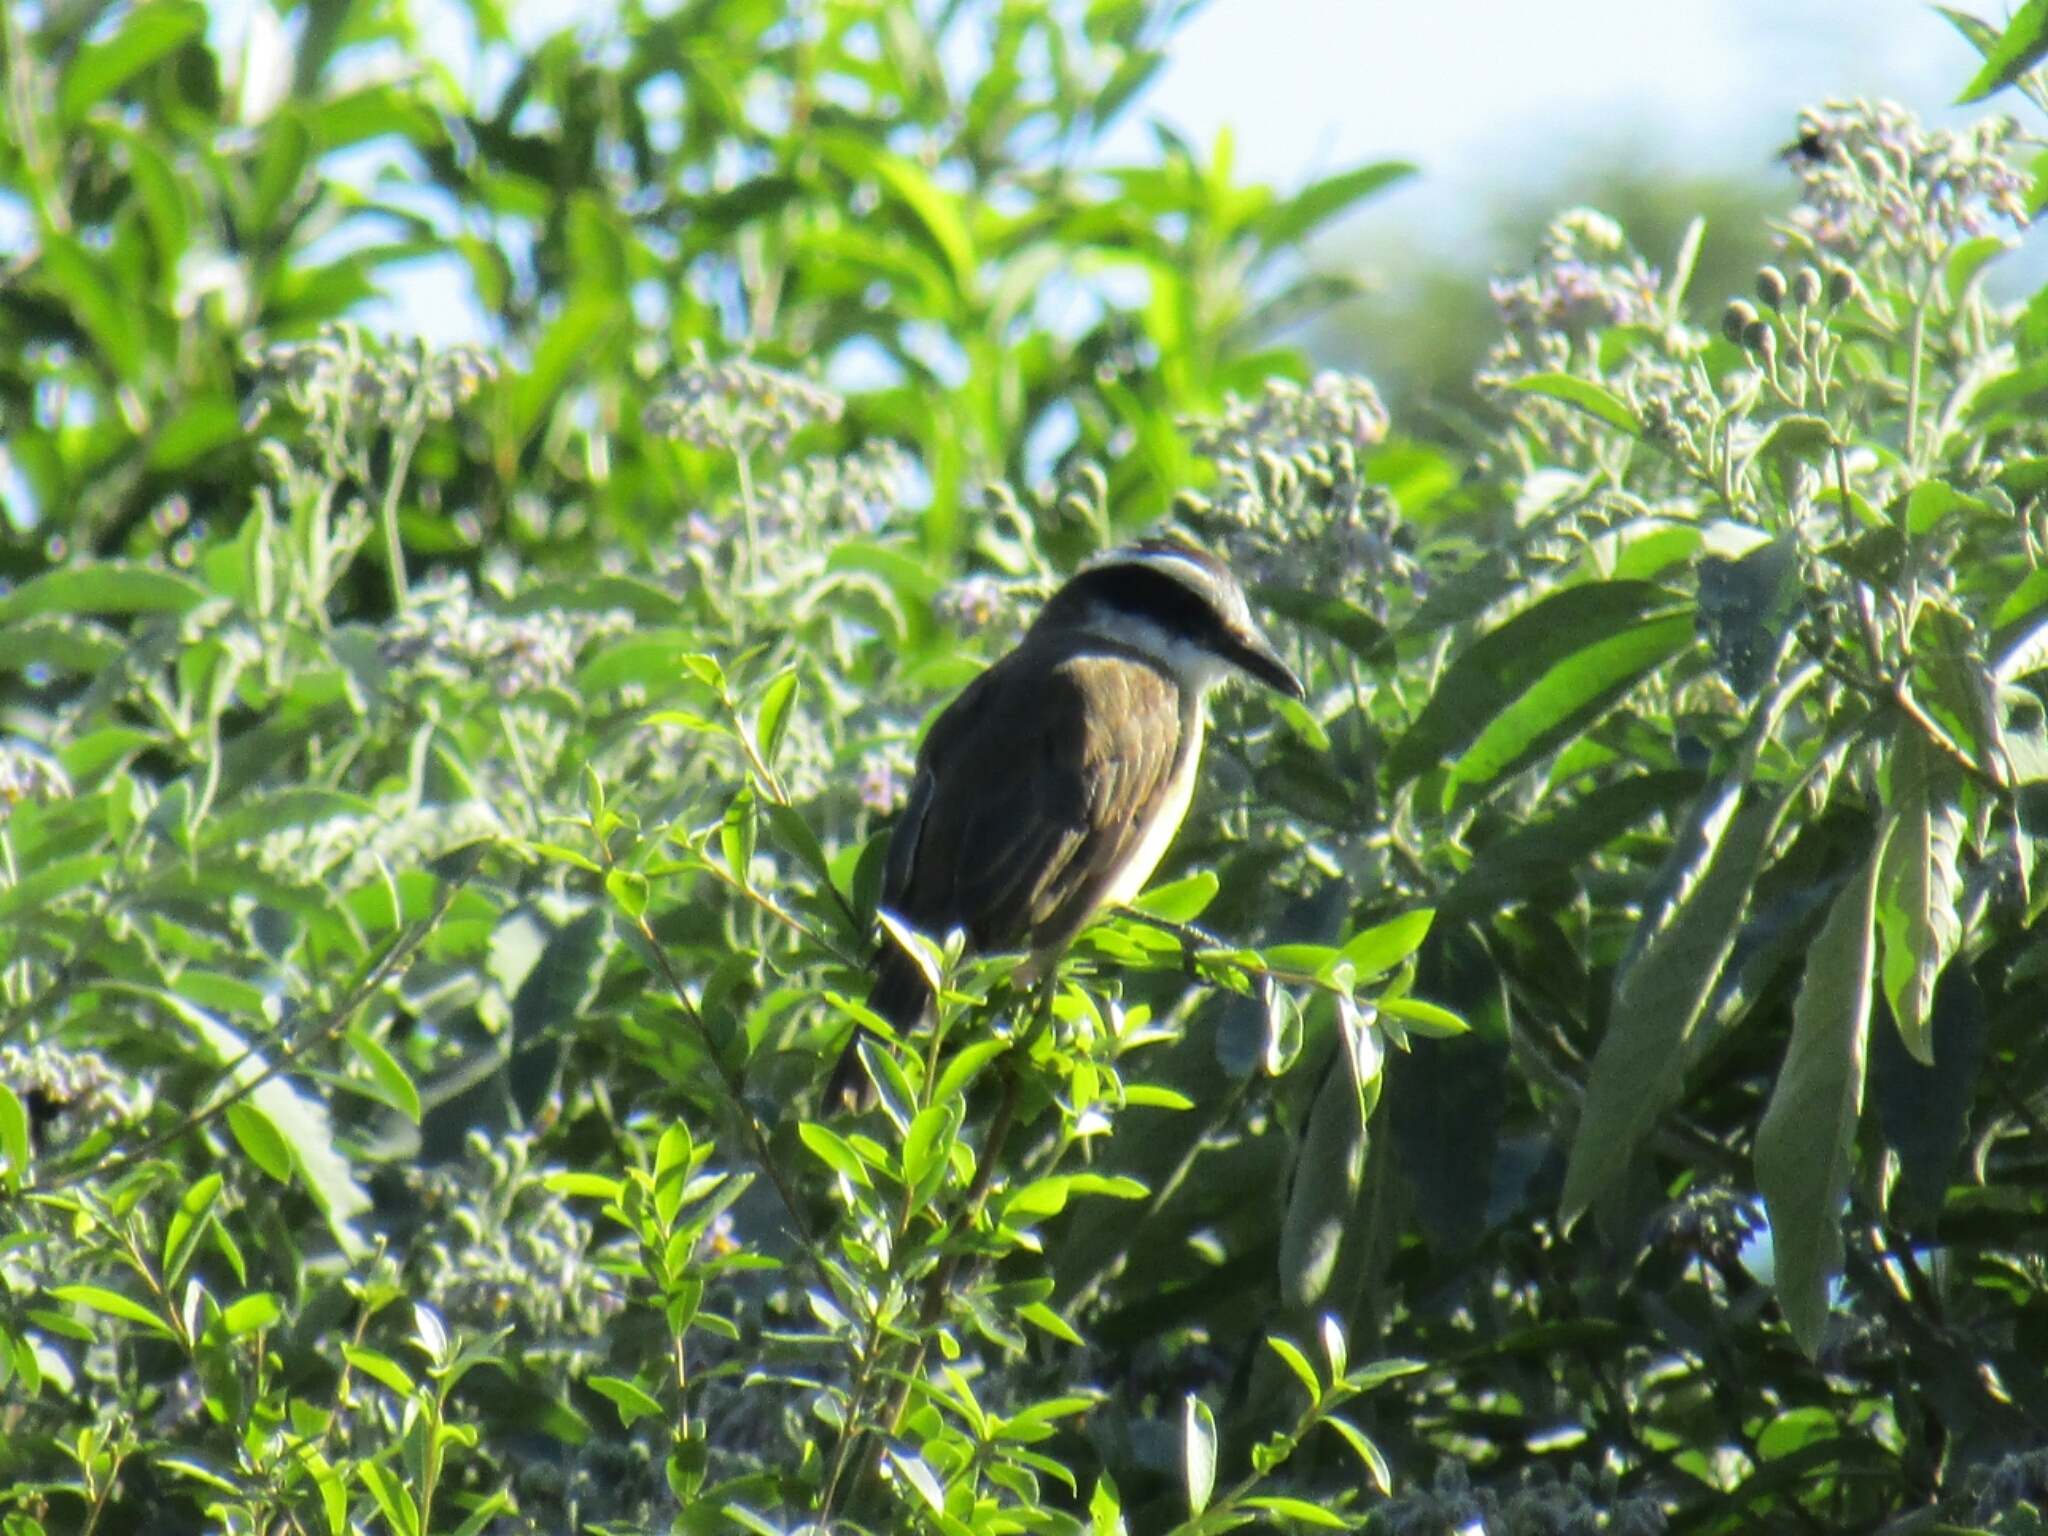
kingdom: Animalia
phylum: Chordata
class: Aves
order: Passeriformes
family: Tyrannidae
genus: Pitangus
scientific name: Pitangus sulphuratus
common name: Great kiskadee
